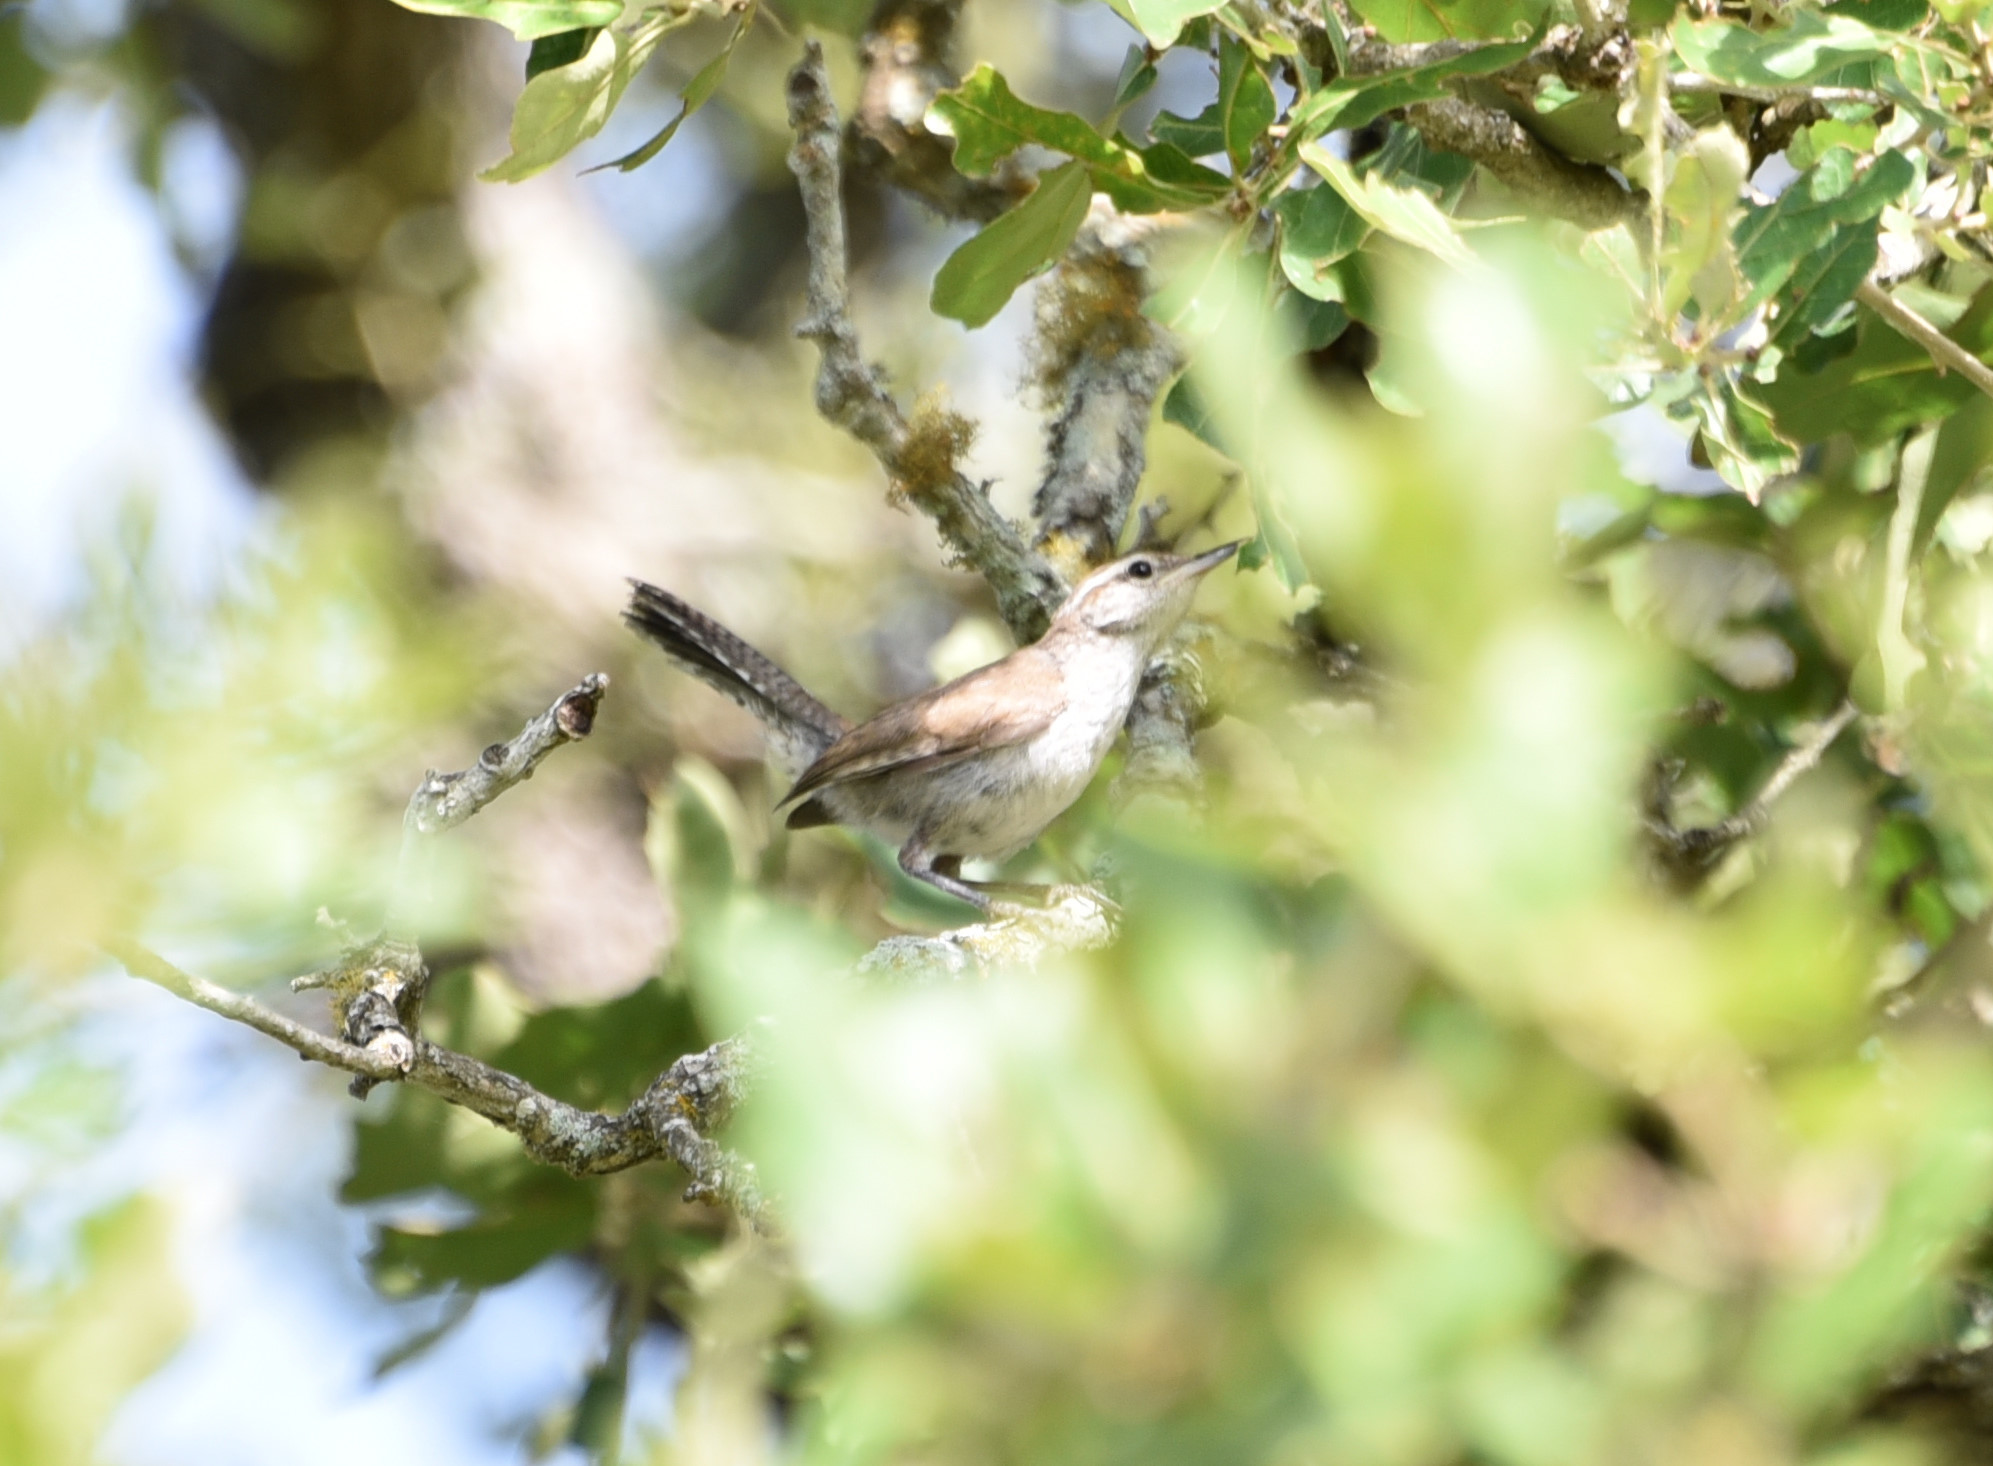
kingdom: Animalia
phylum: Chordata
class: Aves
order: Passeriformes
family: Troglodytidae
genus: Thryomanes
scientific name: Thryomanes bewickii
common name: Bewick's wren
